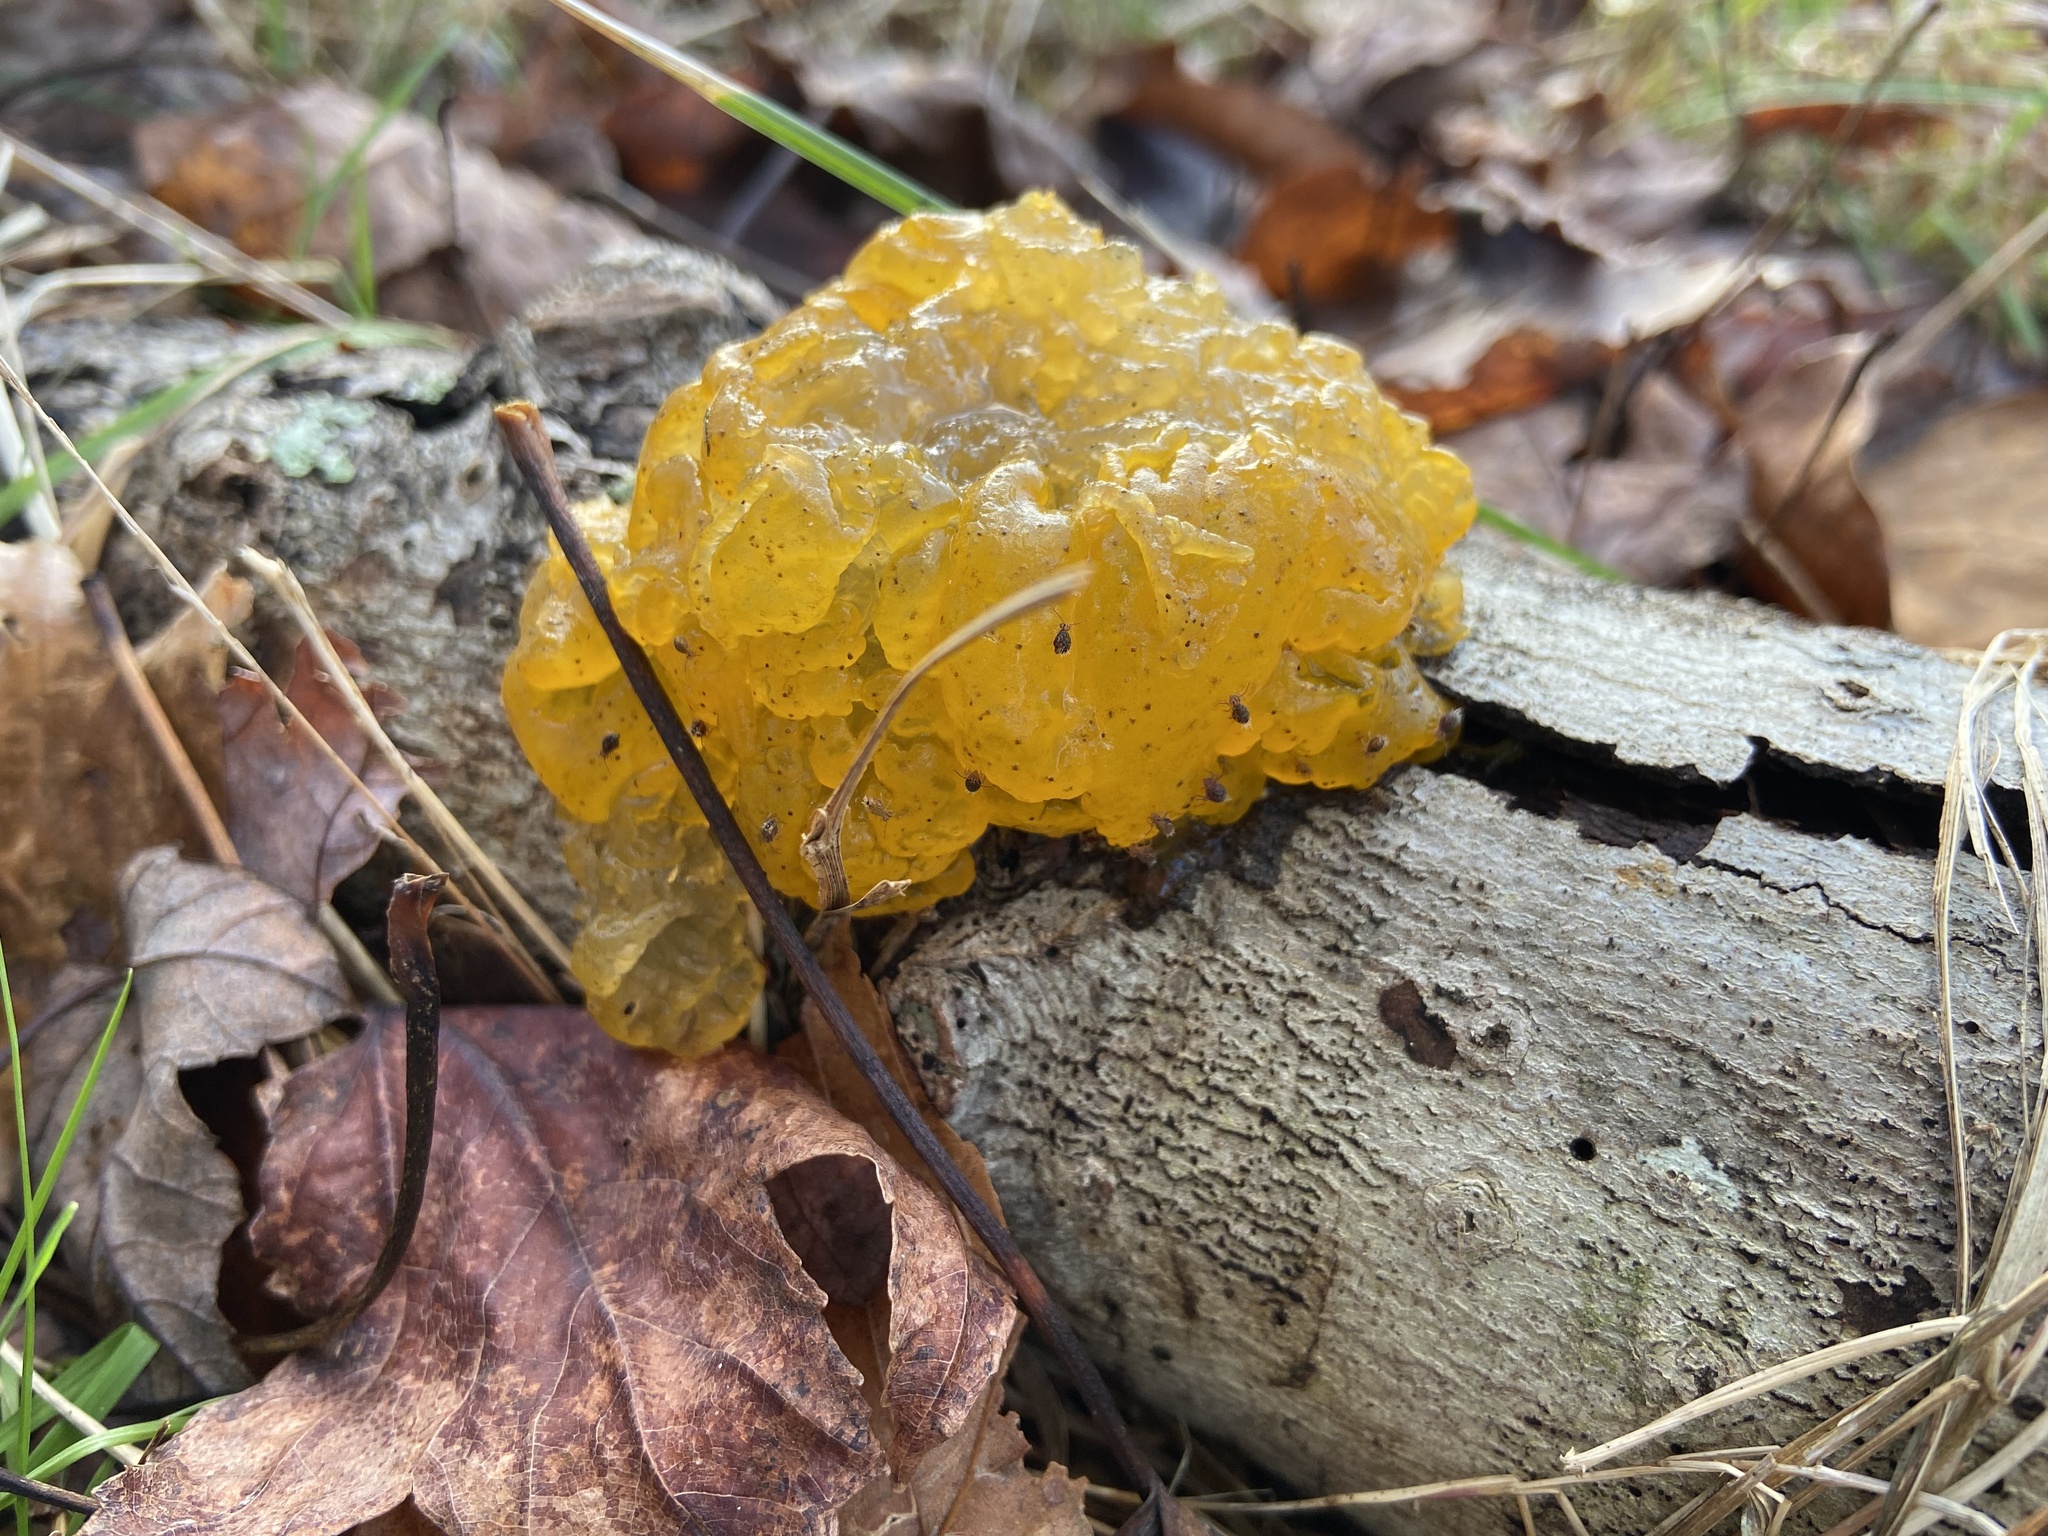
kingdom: Fungi
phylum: Basidiomycota
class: Dacrymycetes
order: Dacrymycetales
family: Dacrymycetaceae
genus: Dacrymyces
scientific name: Dacrymyces chrysospermus
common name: Orange jelly spot
